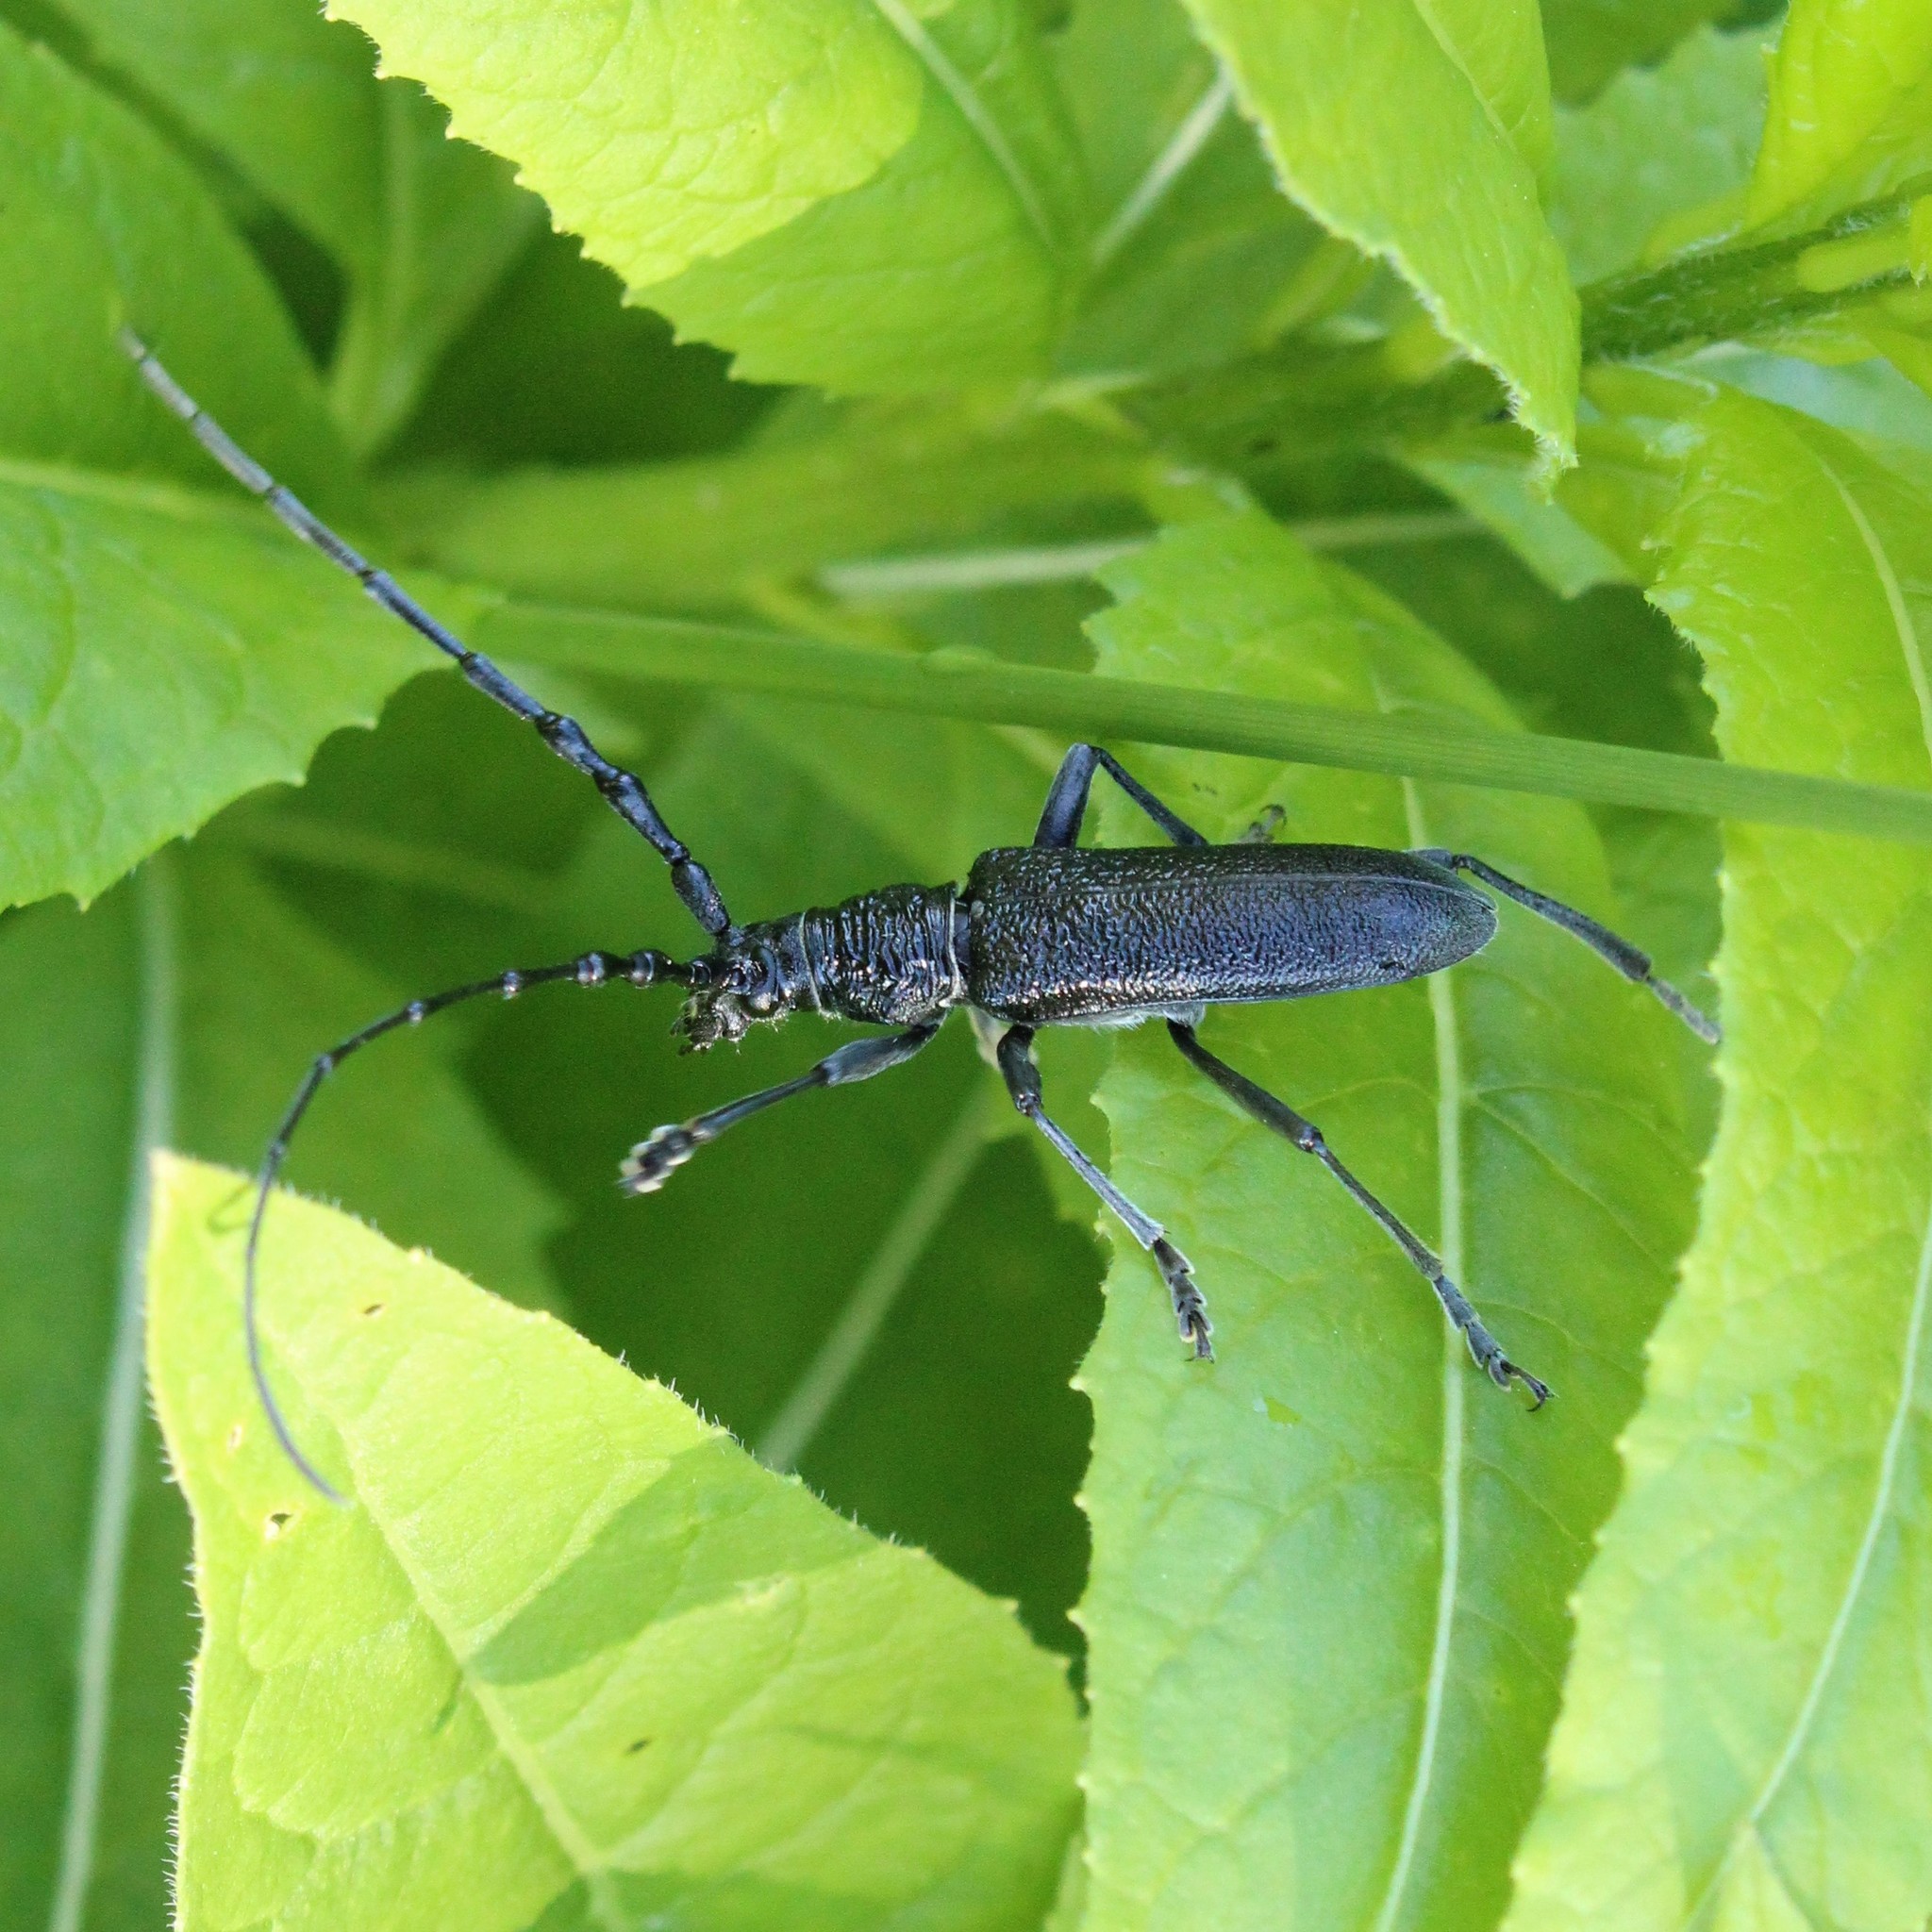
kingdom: Animalia
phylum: Arthropoda
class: Insecta
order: Coleoptera
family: Cerambycidae
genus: Cerambyx
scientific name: Cerambyx scopolii
